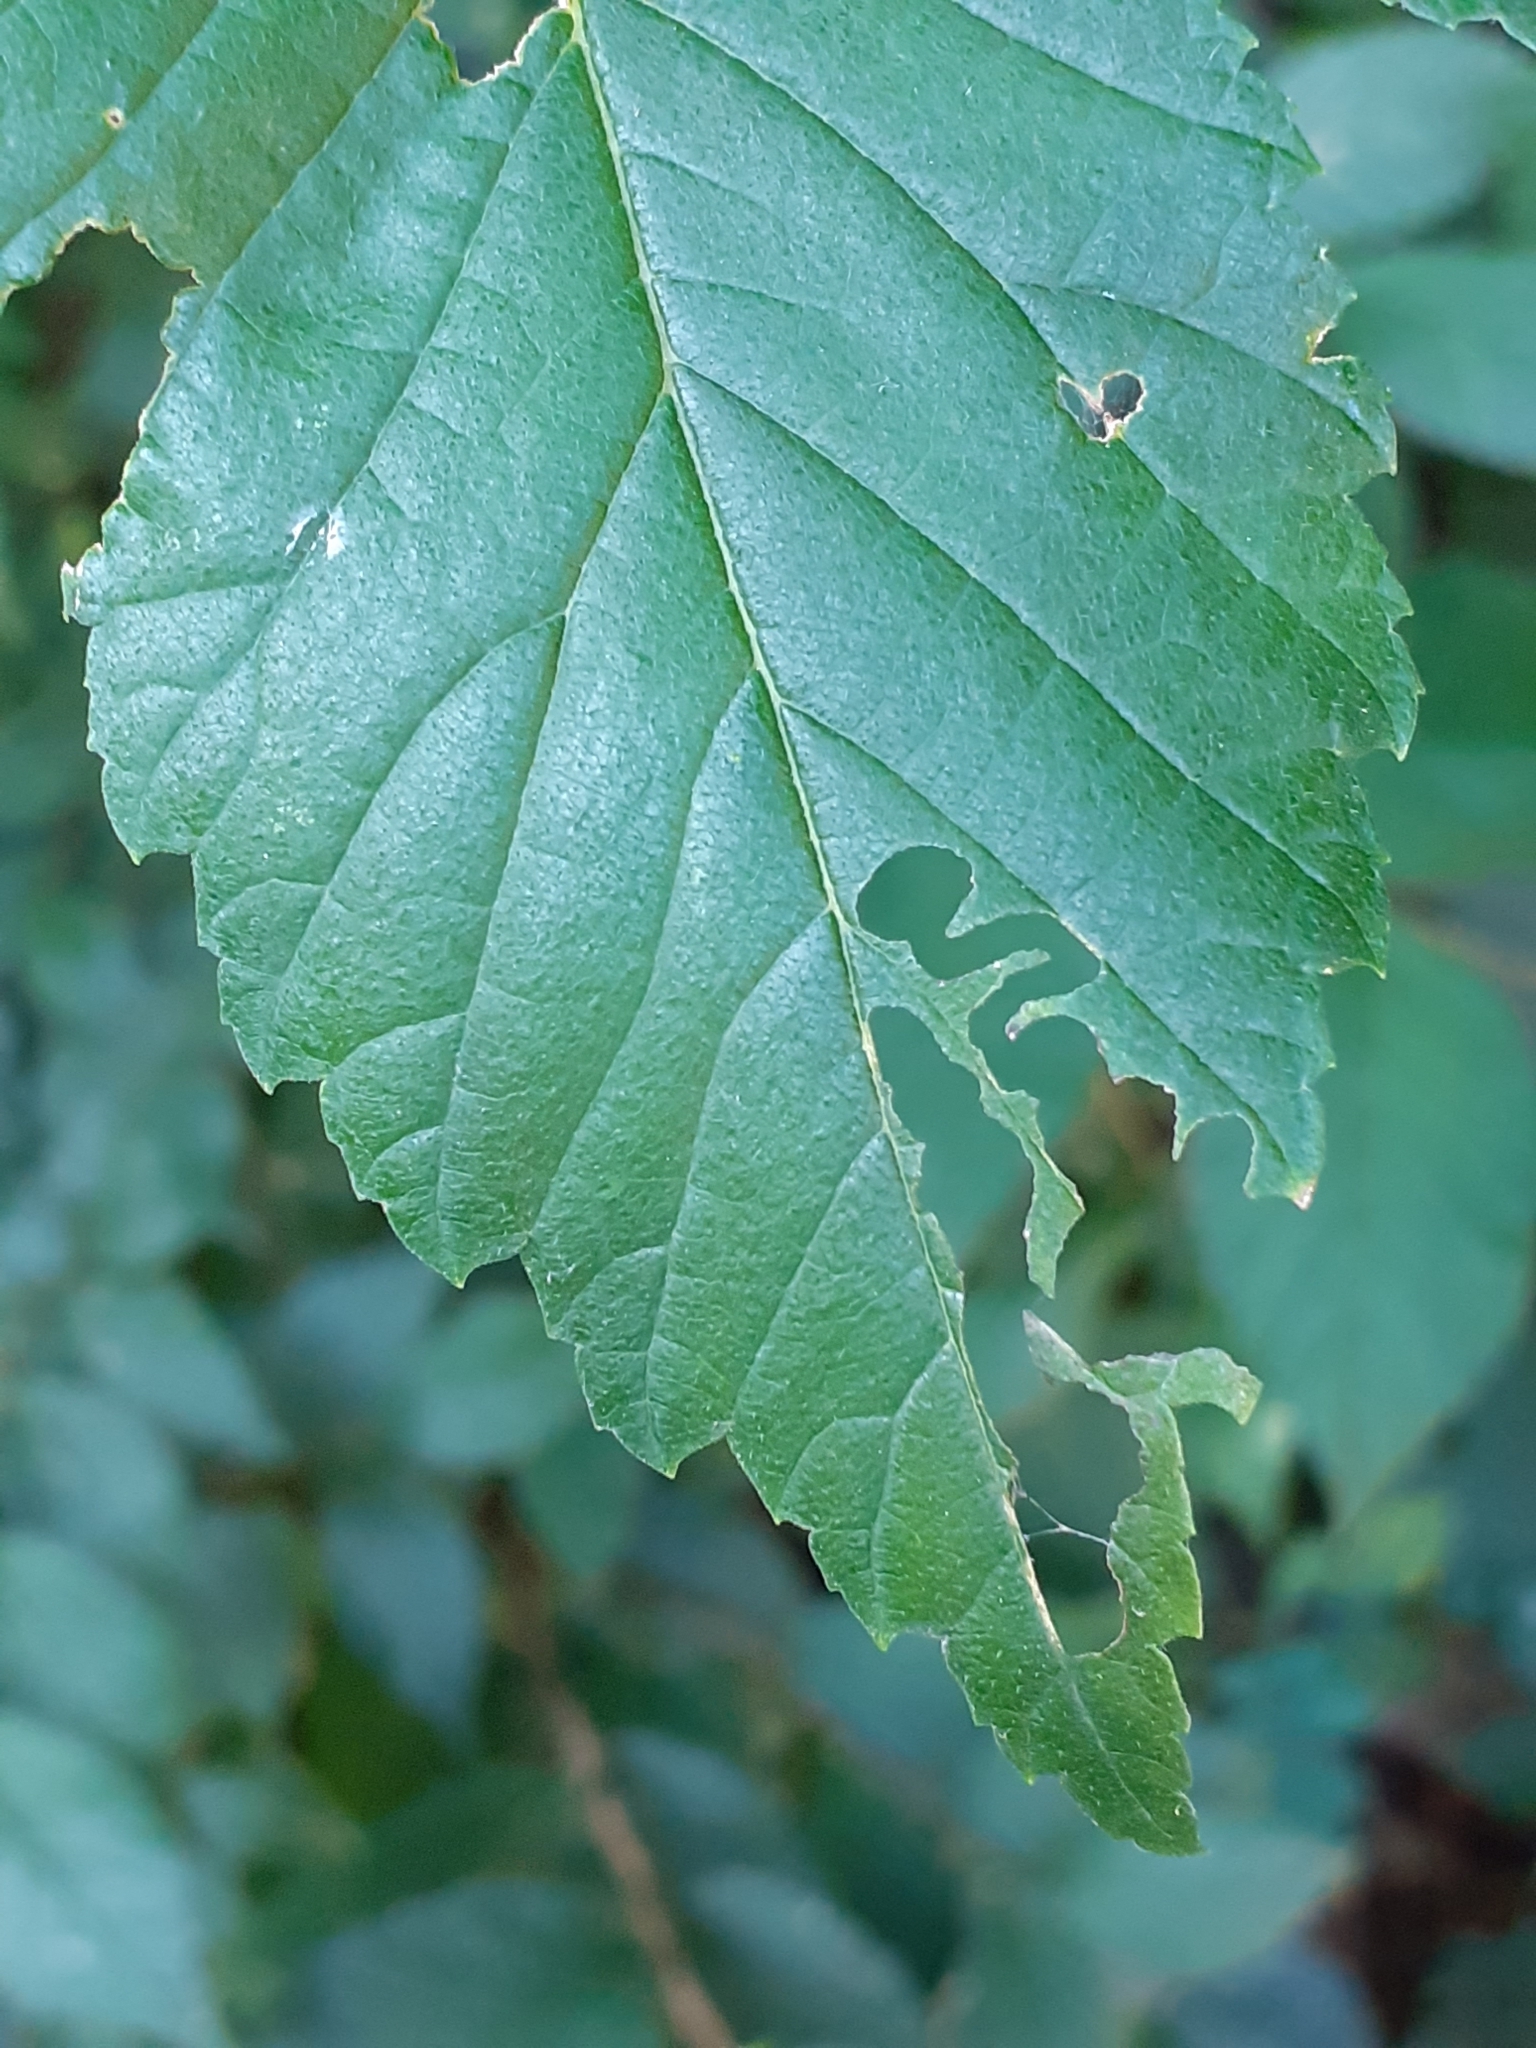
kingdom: Animalia
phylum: Arthropoda
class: Insecta
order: Hymenoptera
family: Argidae
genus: Aproceros
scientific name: Aproceros leucopoda
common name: Zig-zag elm sawfly
